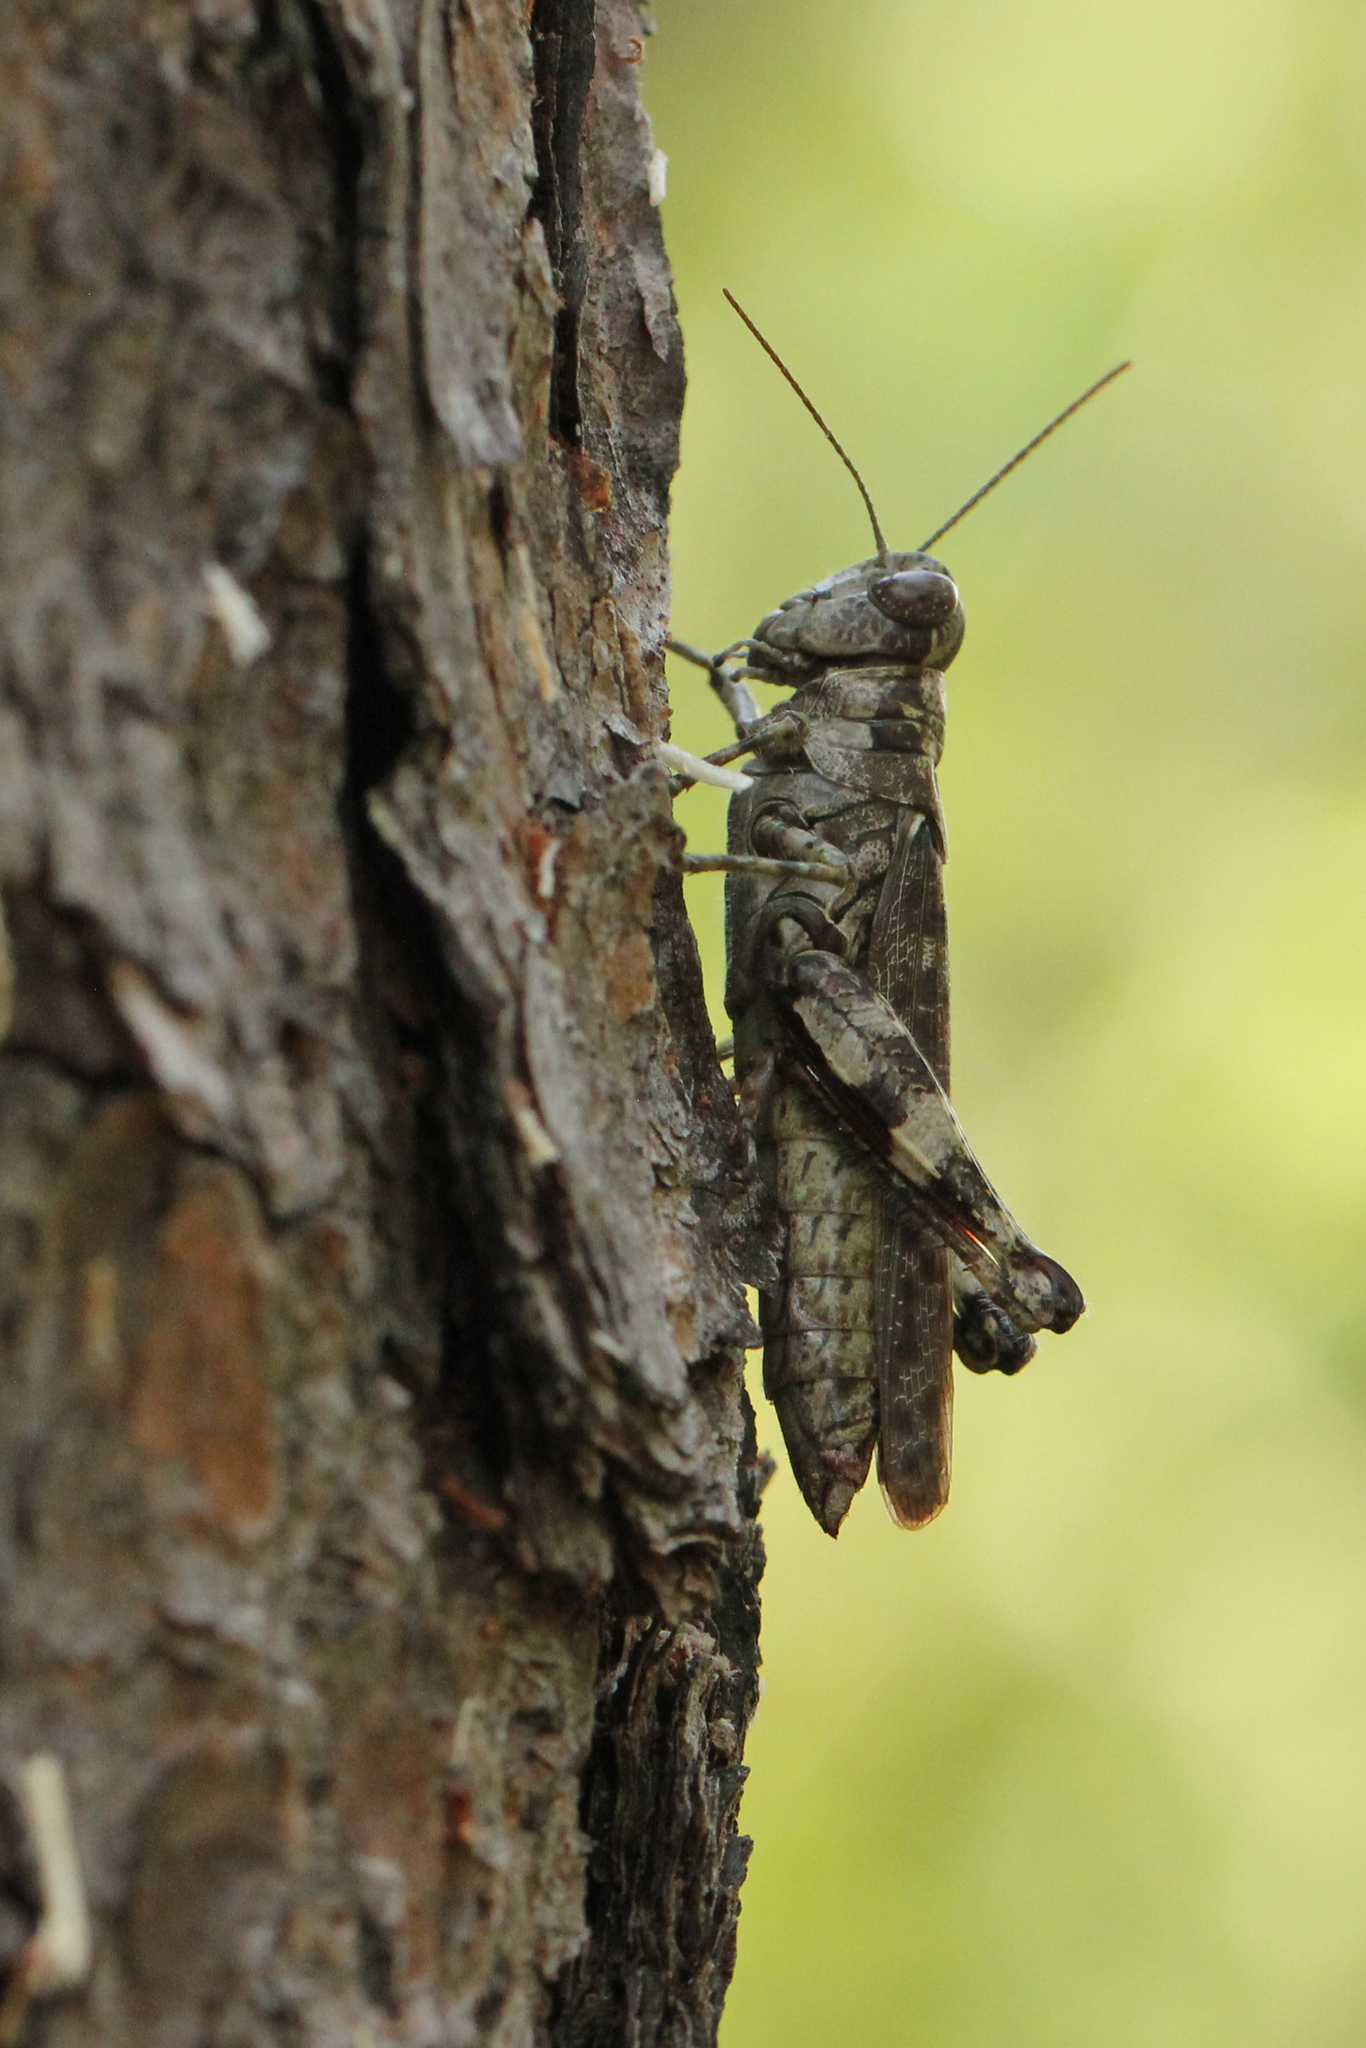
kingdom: Animalia
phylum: Arthropoda
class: Insecta
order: Orthoptera
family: Acrididae
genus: Melanoplus
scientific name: Melanoplus punctulatus
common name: Pine-tree spur-throat grasshopper
